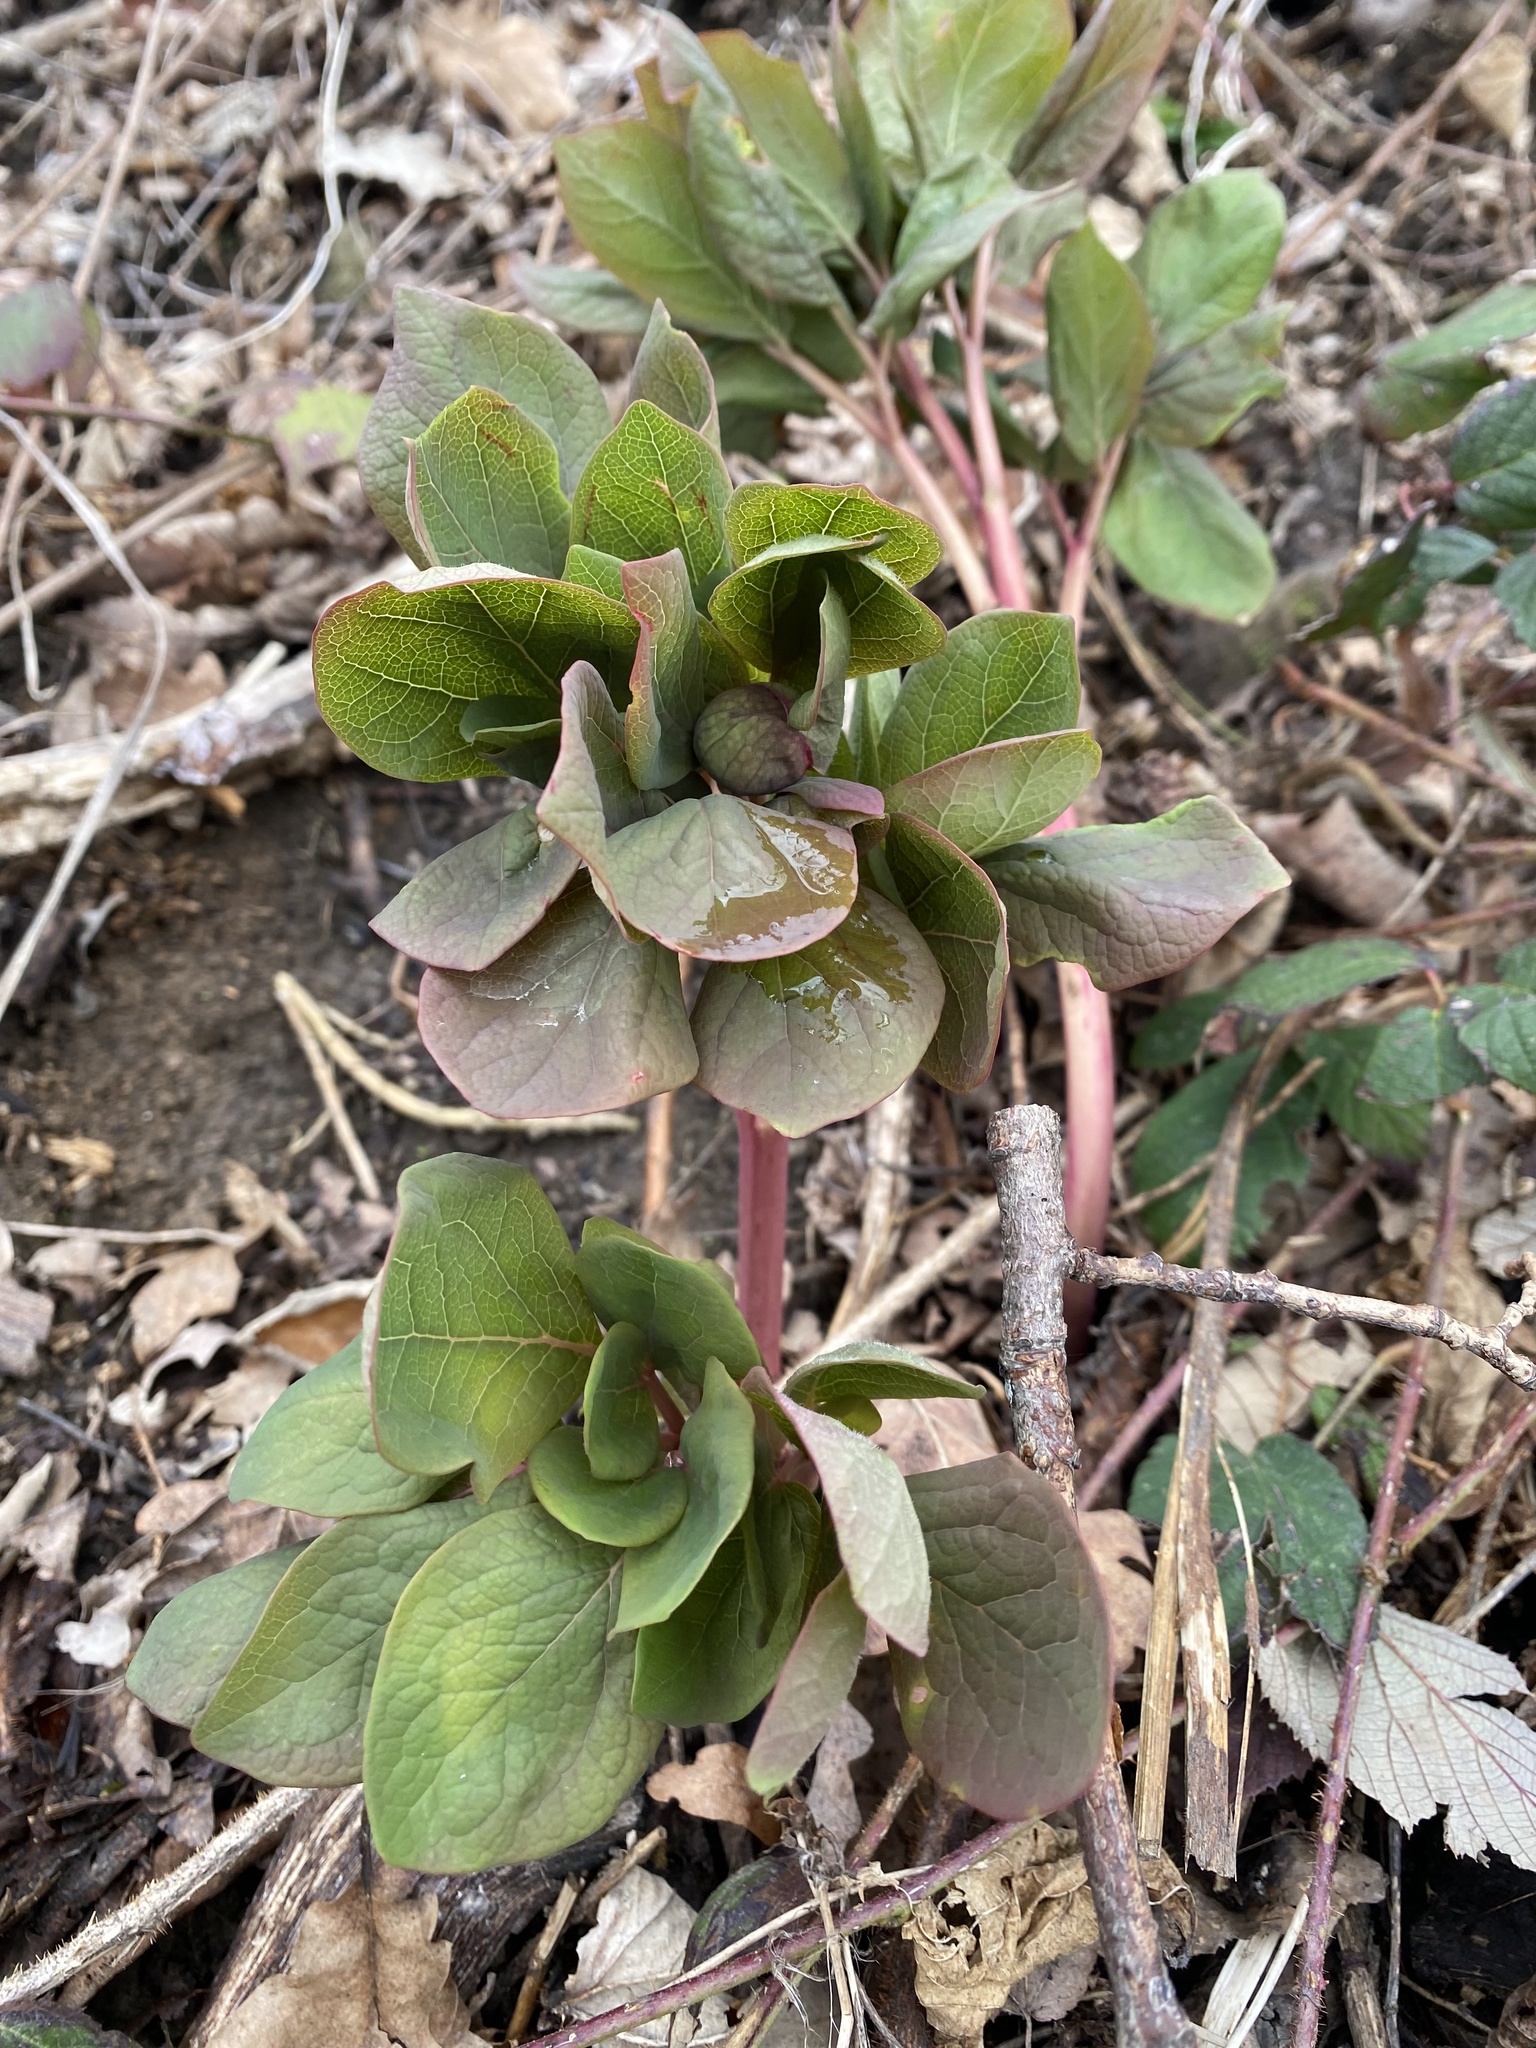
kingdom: Plantae
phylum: Tracheophyta
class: Magnoliopsida
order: Saxifragales
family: Paeoniaceae
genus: Paeonia
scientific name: Paeonia caucasica
